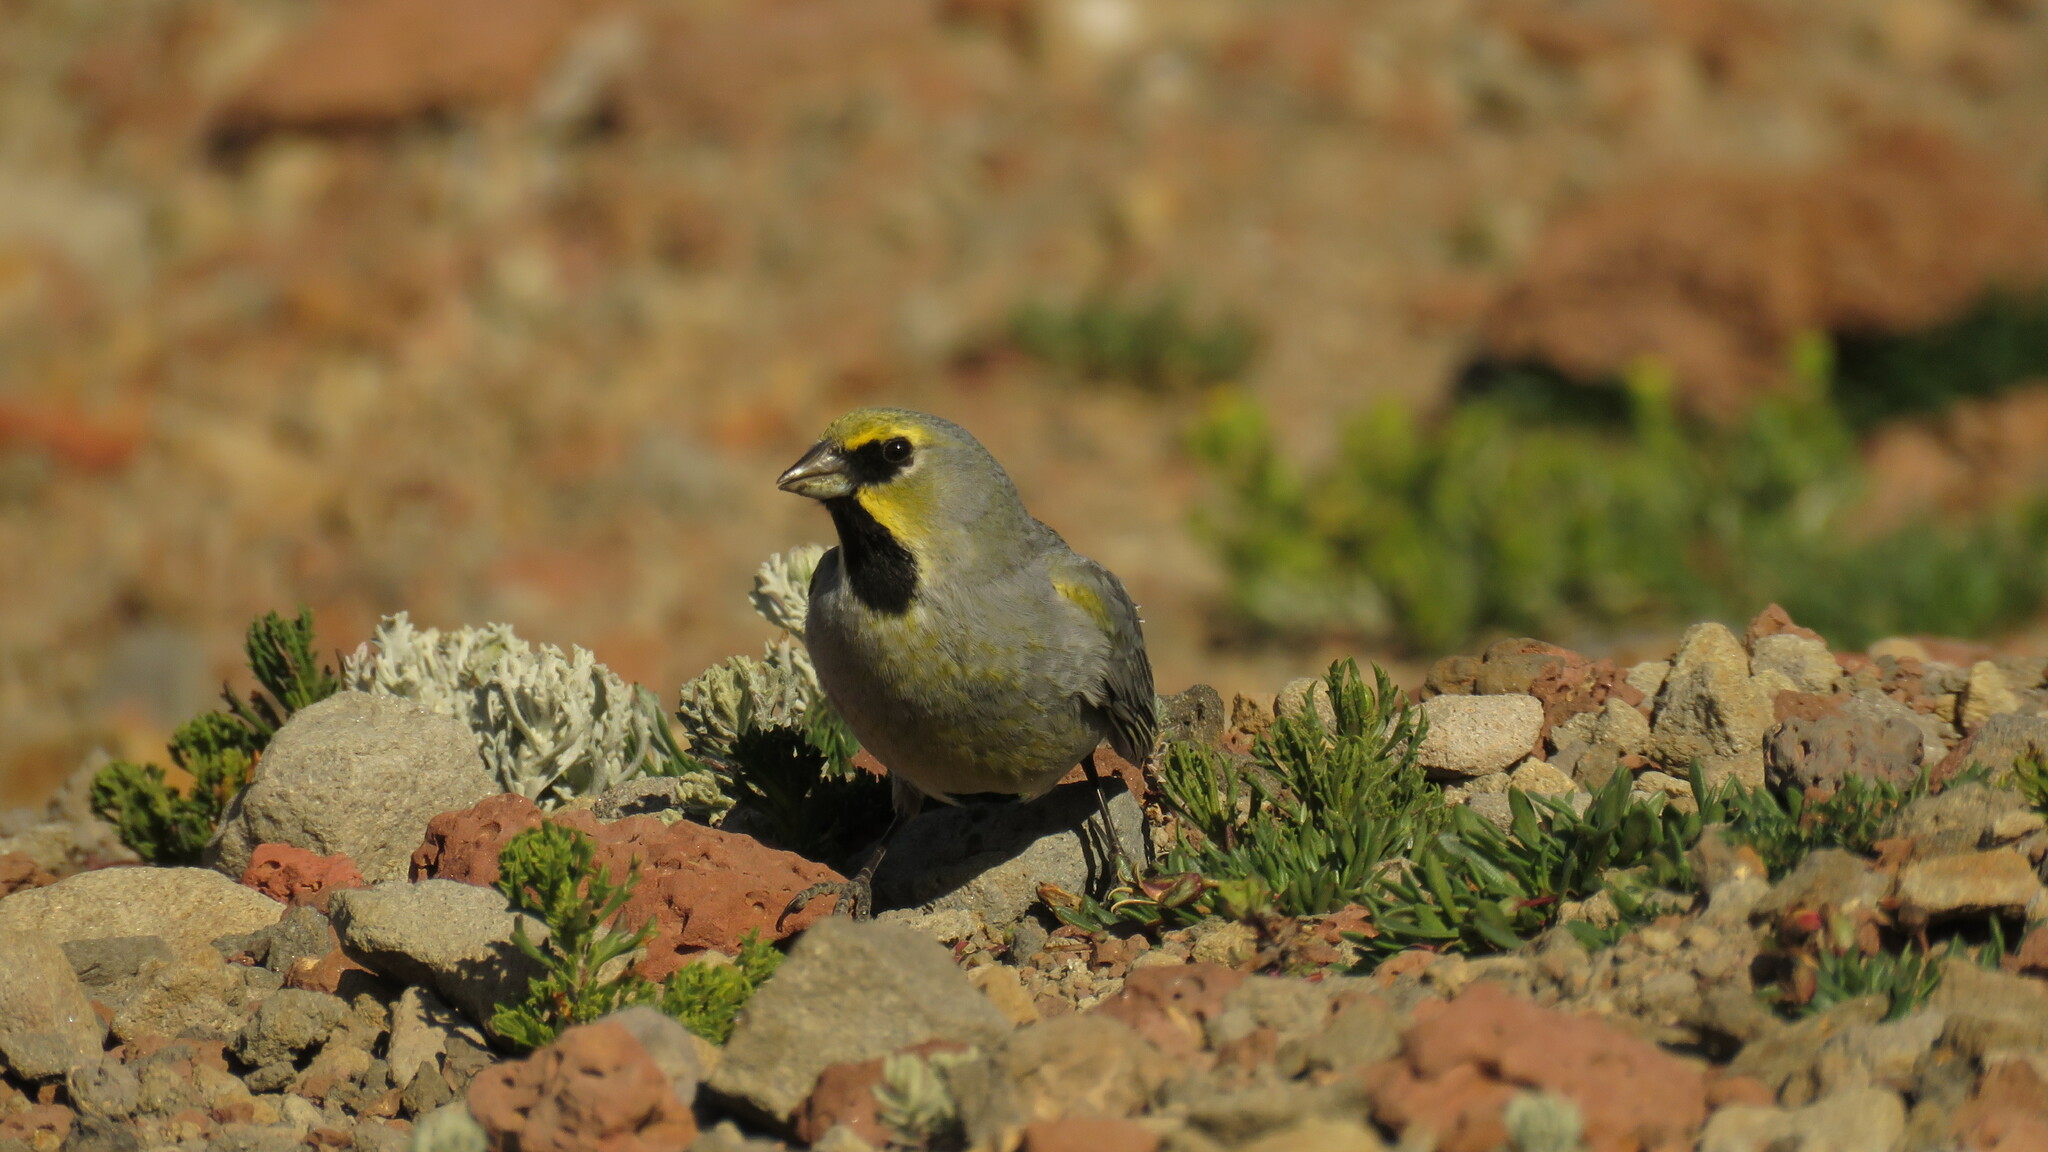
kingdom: Animalia
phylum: Chordata
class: Aves
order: Passeriformes
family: Thraupidae
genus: Melanodera
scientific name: Melanodera xanthogramma
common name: Yellow-bridled finch
